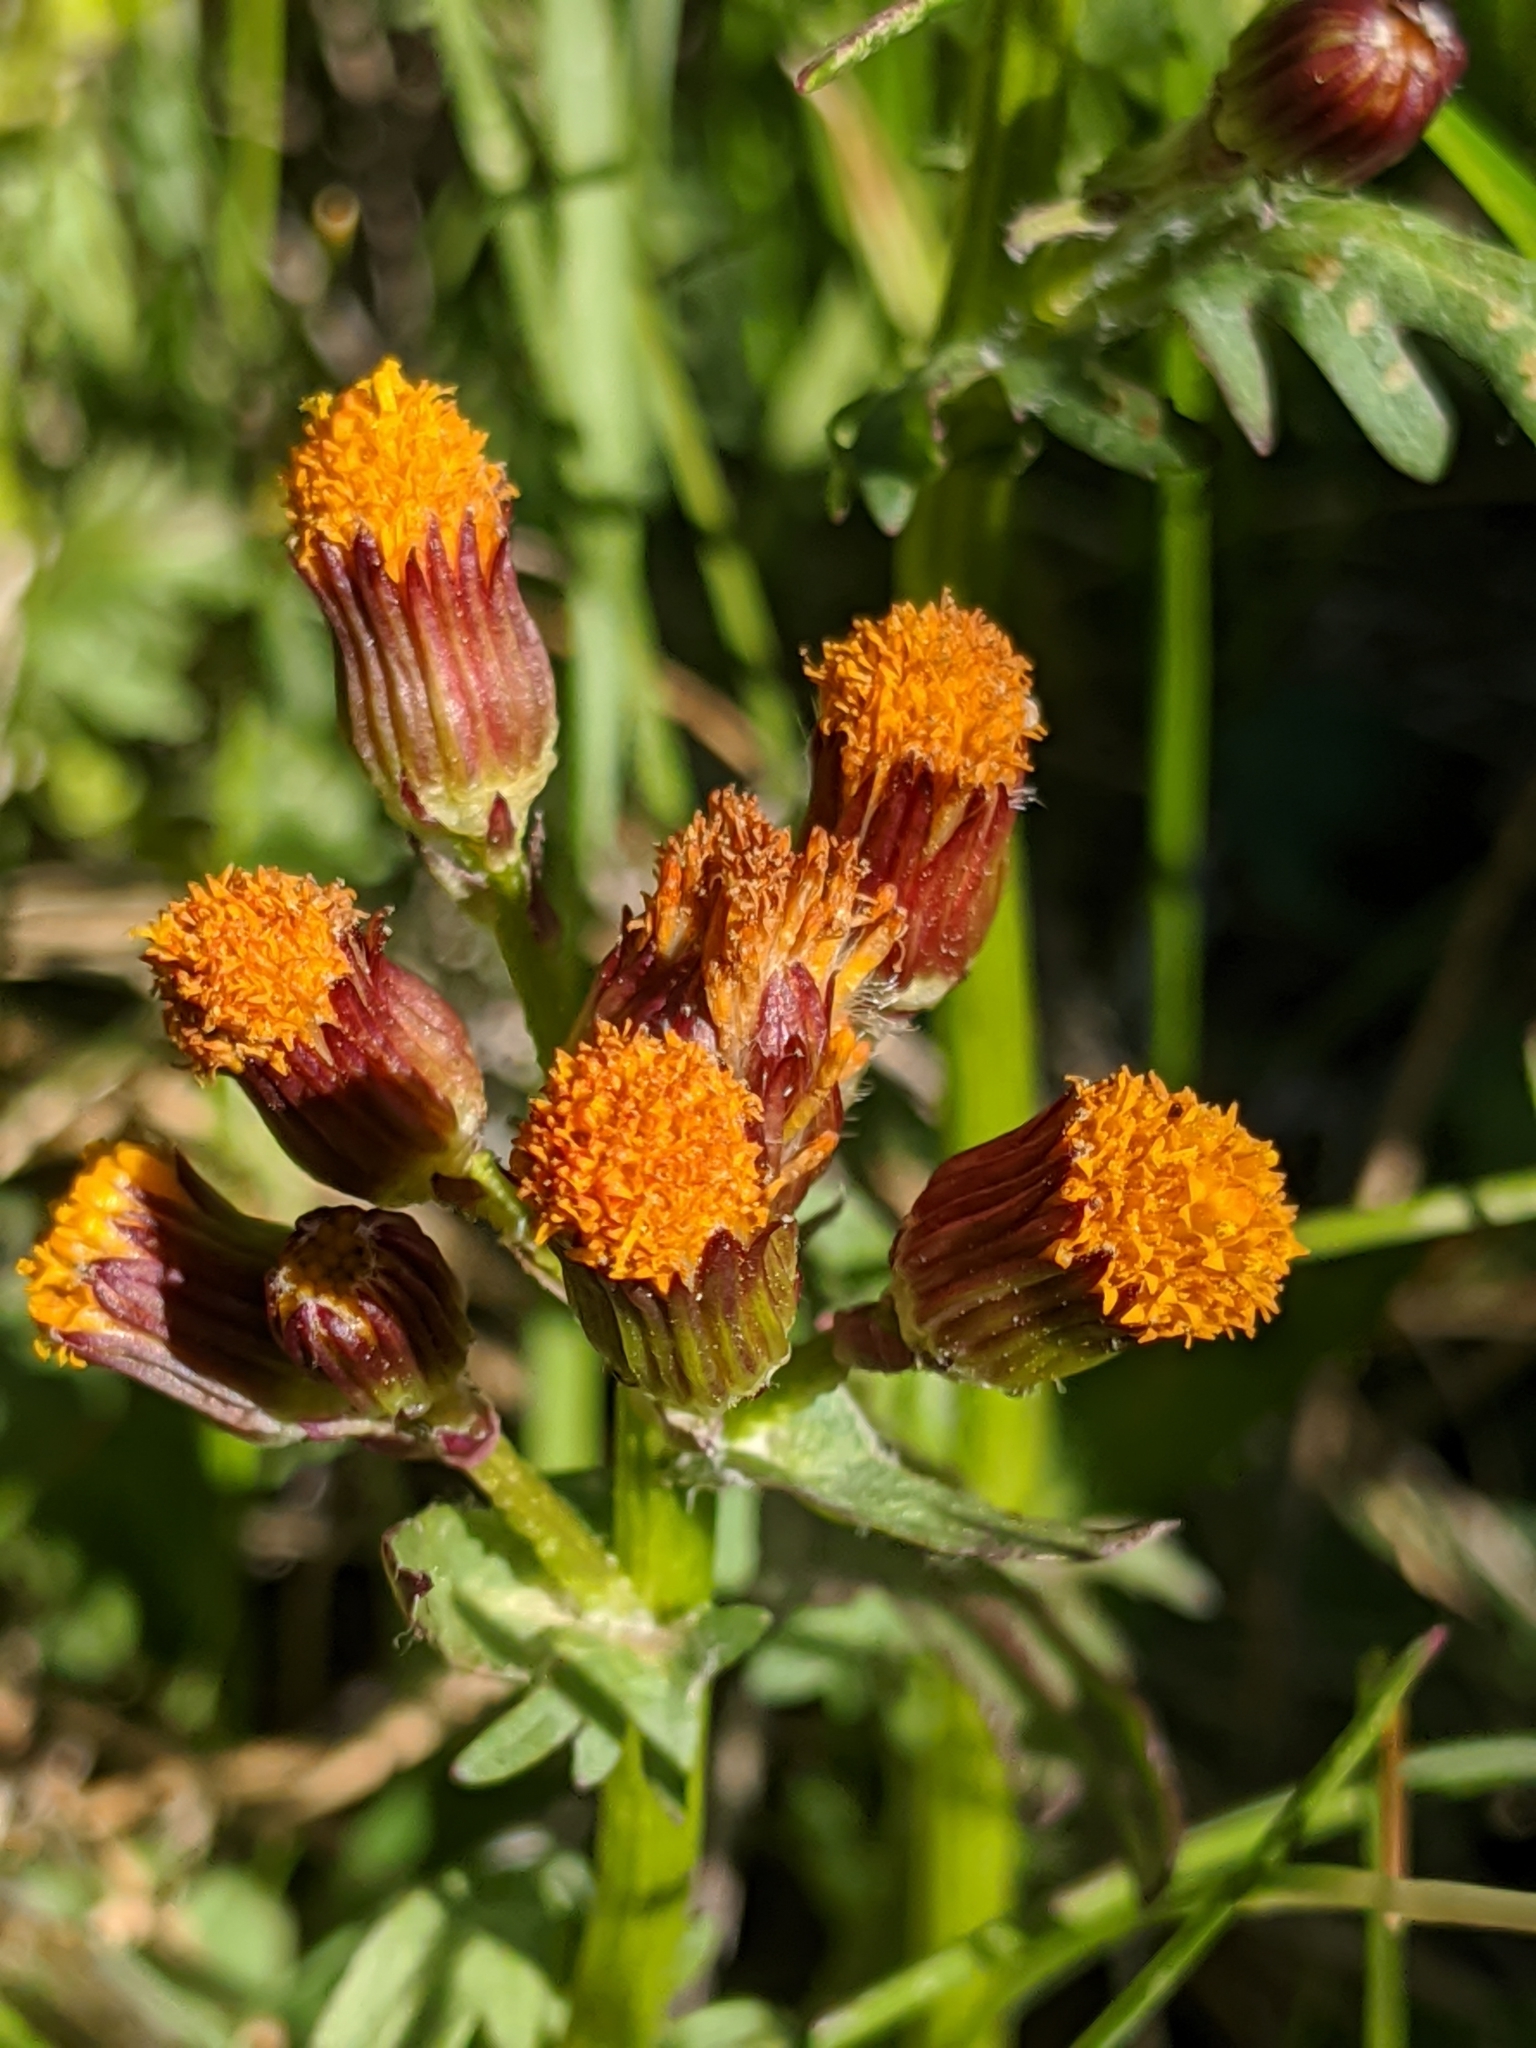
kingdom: Plantae
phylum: Tracheophyta
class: Magnoliopsida
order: Asterales
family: Asteraceae
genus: Packera
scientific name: Packera pauciflora
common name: Alpine groundsel
